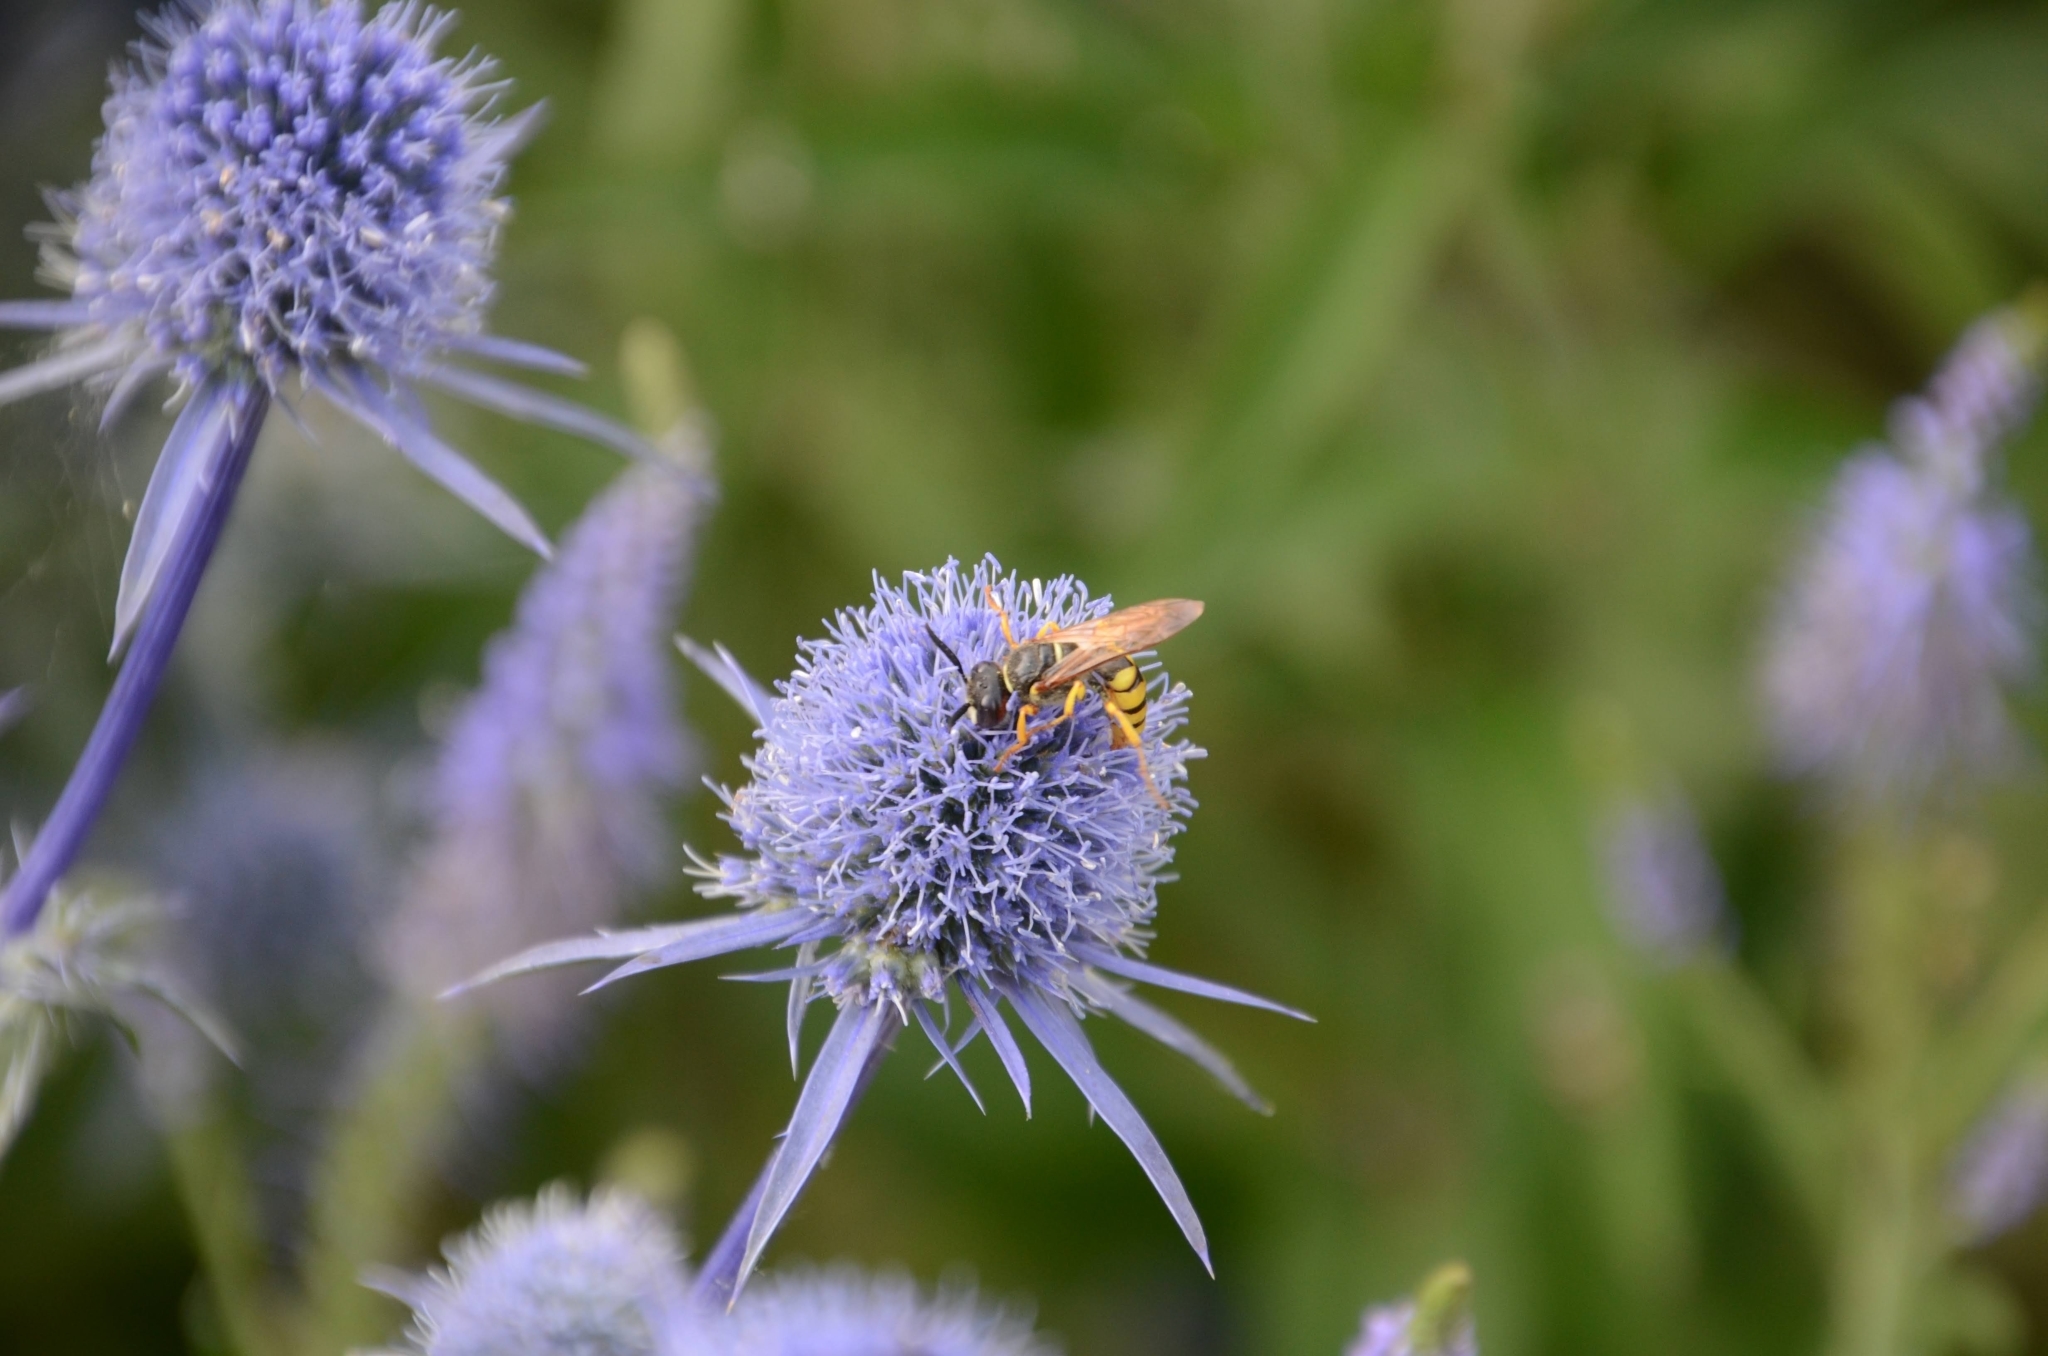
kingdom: Animalia
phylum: Arthropoda
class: Insecta
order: Hymenoptera
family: Crabronidae
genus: Philanthus
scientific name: Philanthus triangulum
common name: Bee wolf
